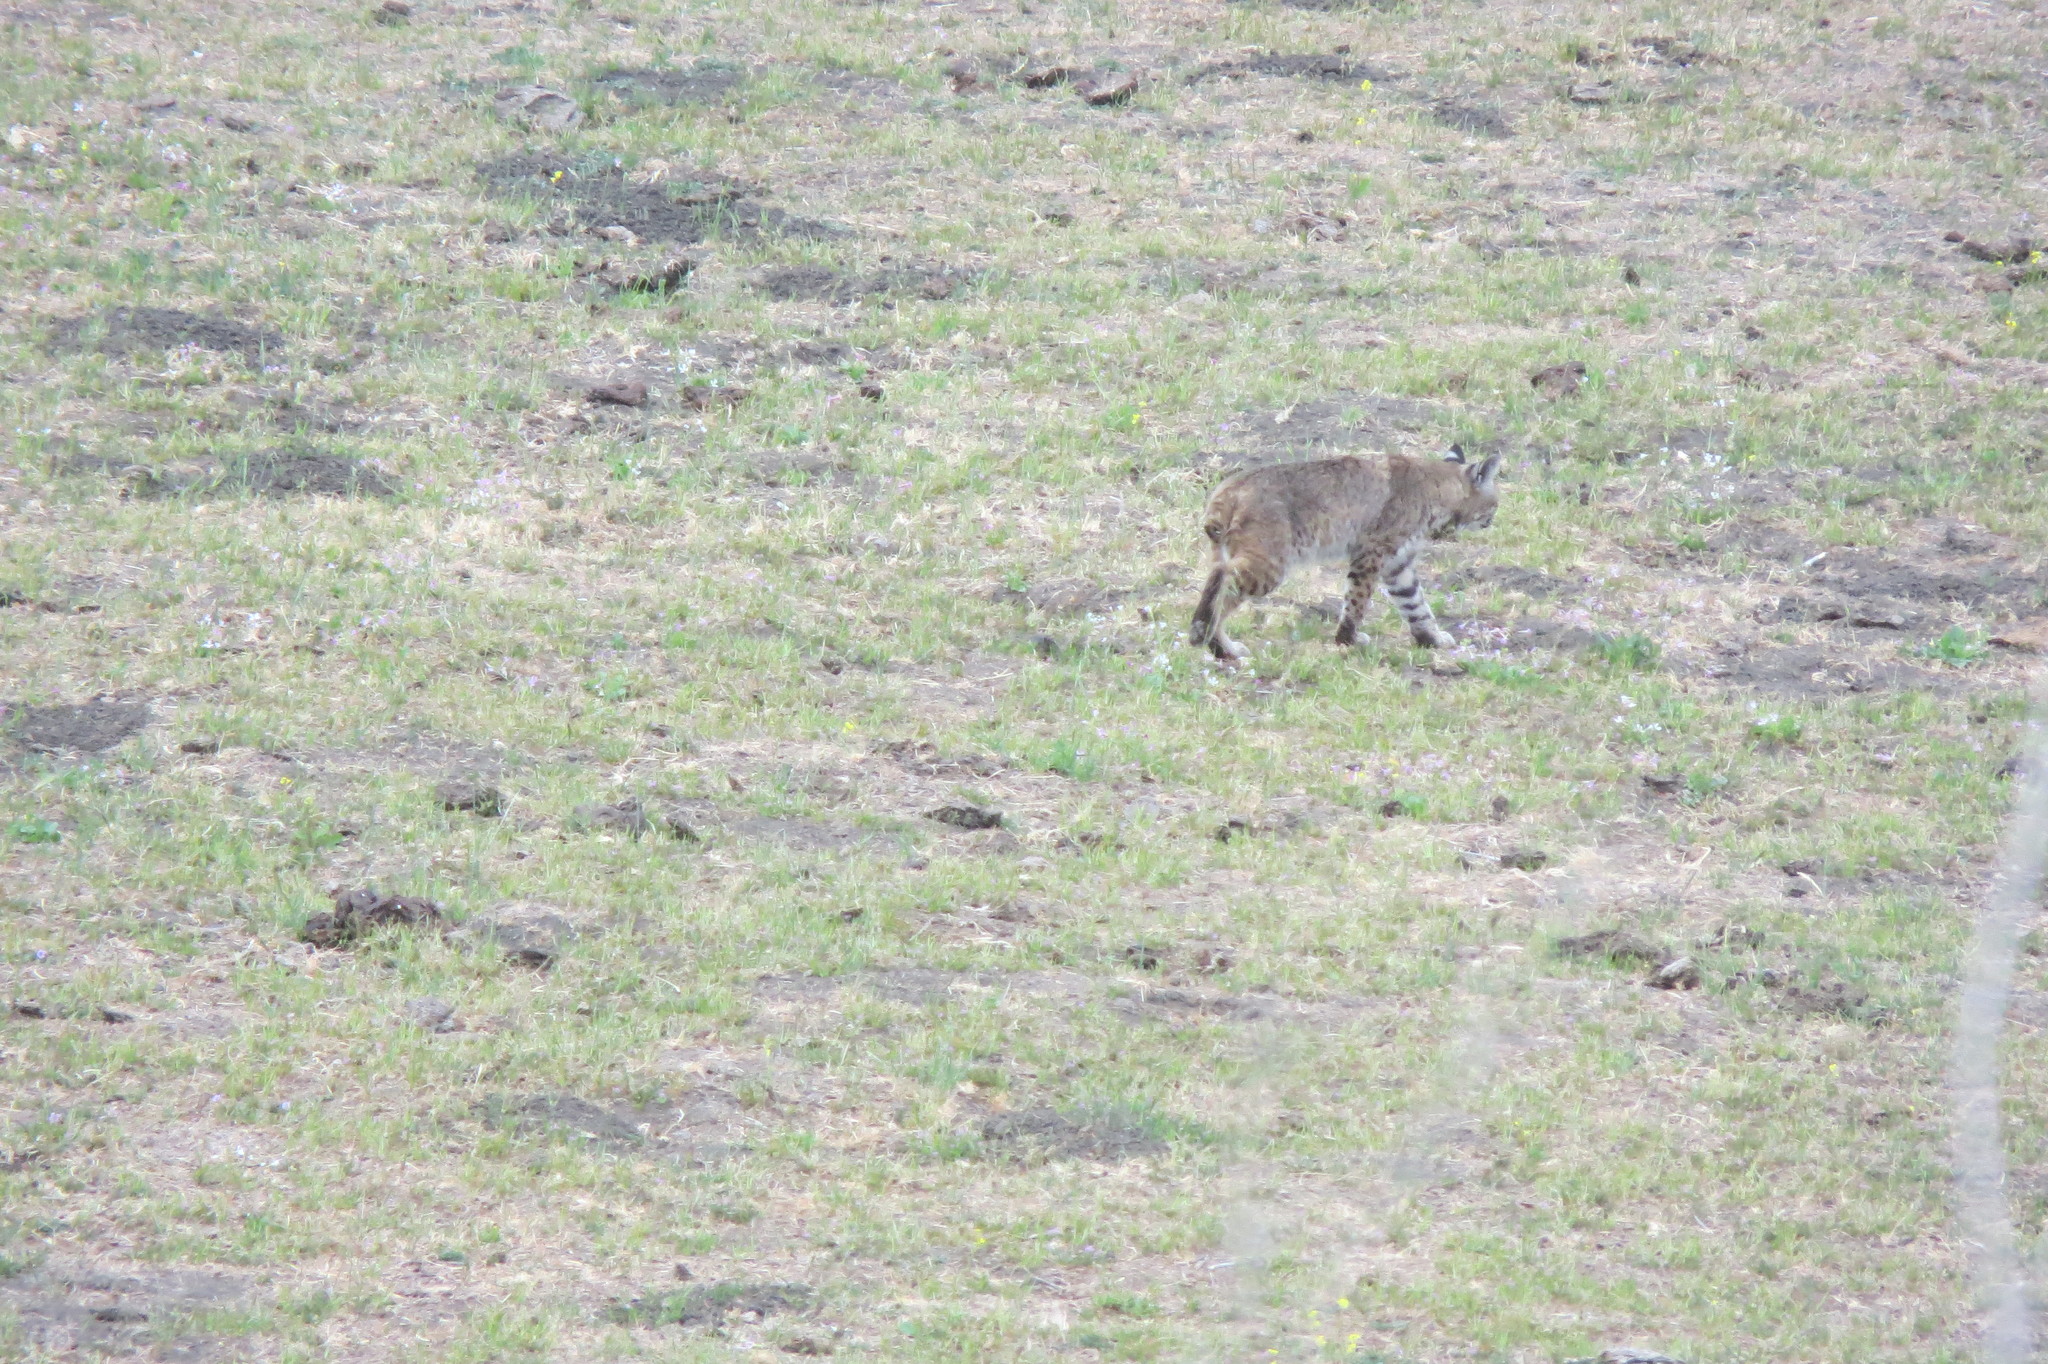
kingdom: Animalia
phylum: Chordata
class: Mammalia
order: Carnivora
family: Felidae
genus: Lynx
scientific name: Lynx rufus
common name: Bobcat
